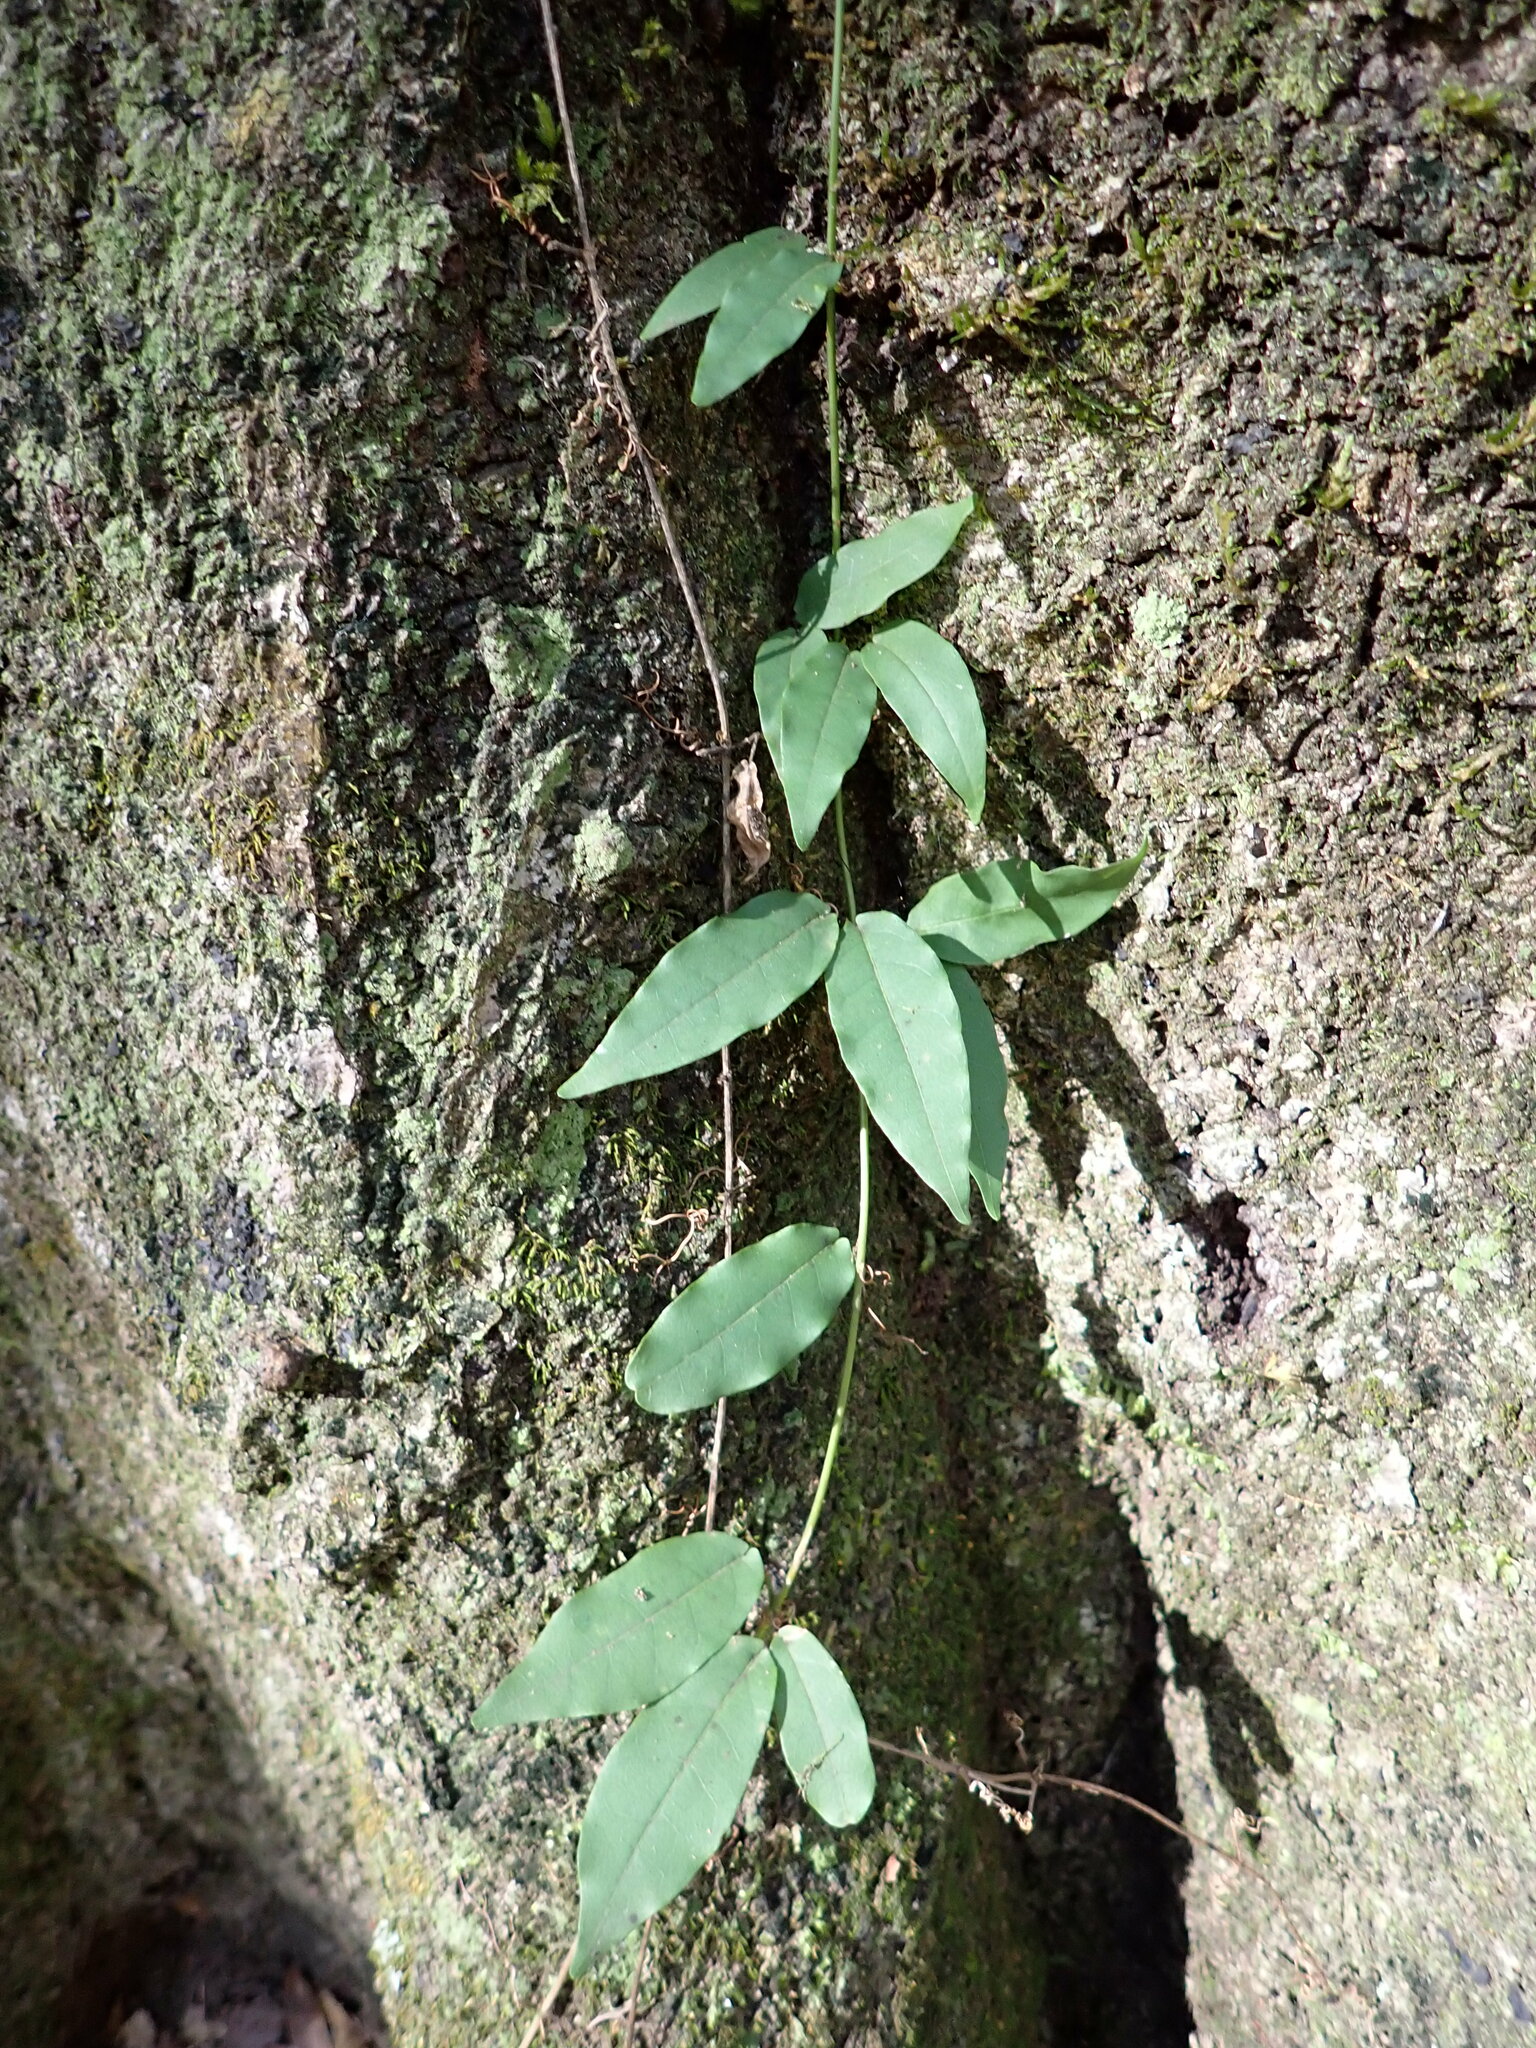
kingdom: Plantae
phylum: Tracheophyta
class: Magnoliopsida
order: Lamiales
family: Bignoniaceae
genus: Bignonia
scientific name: Bignonia capreolata
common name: Crossvine
